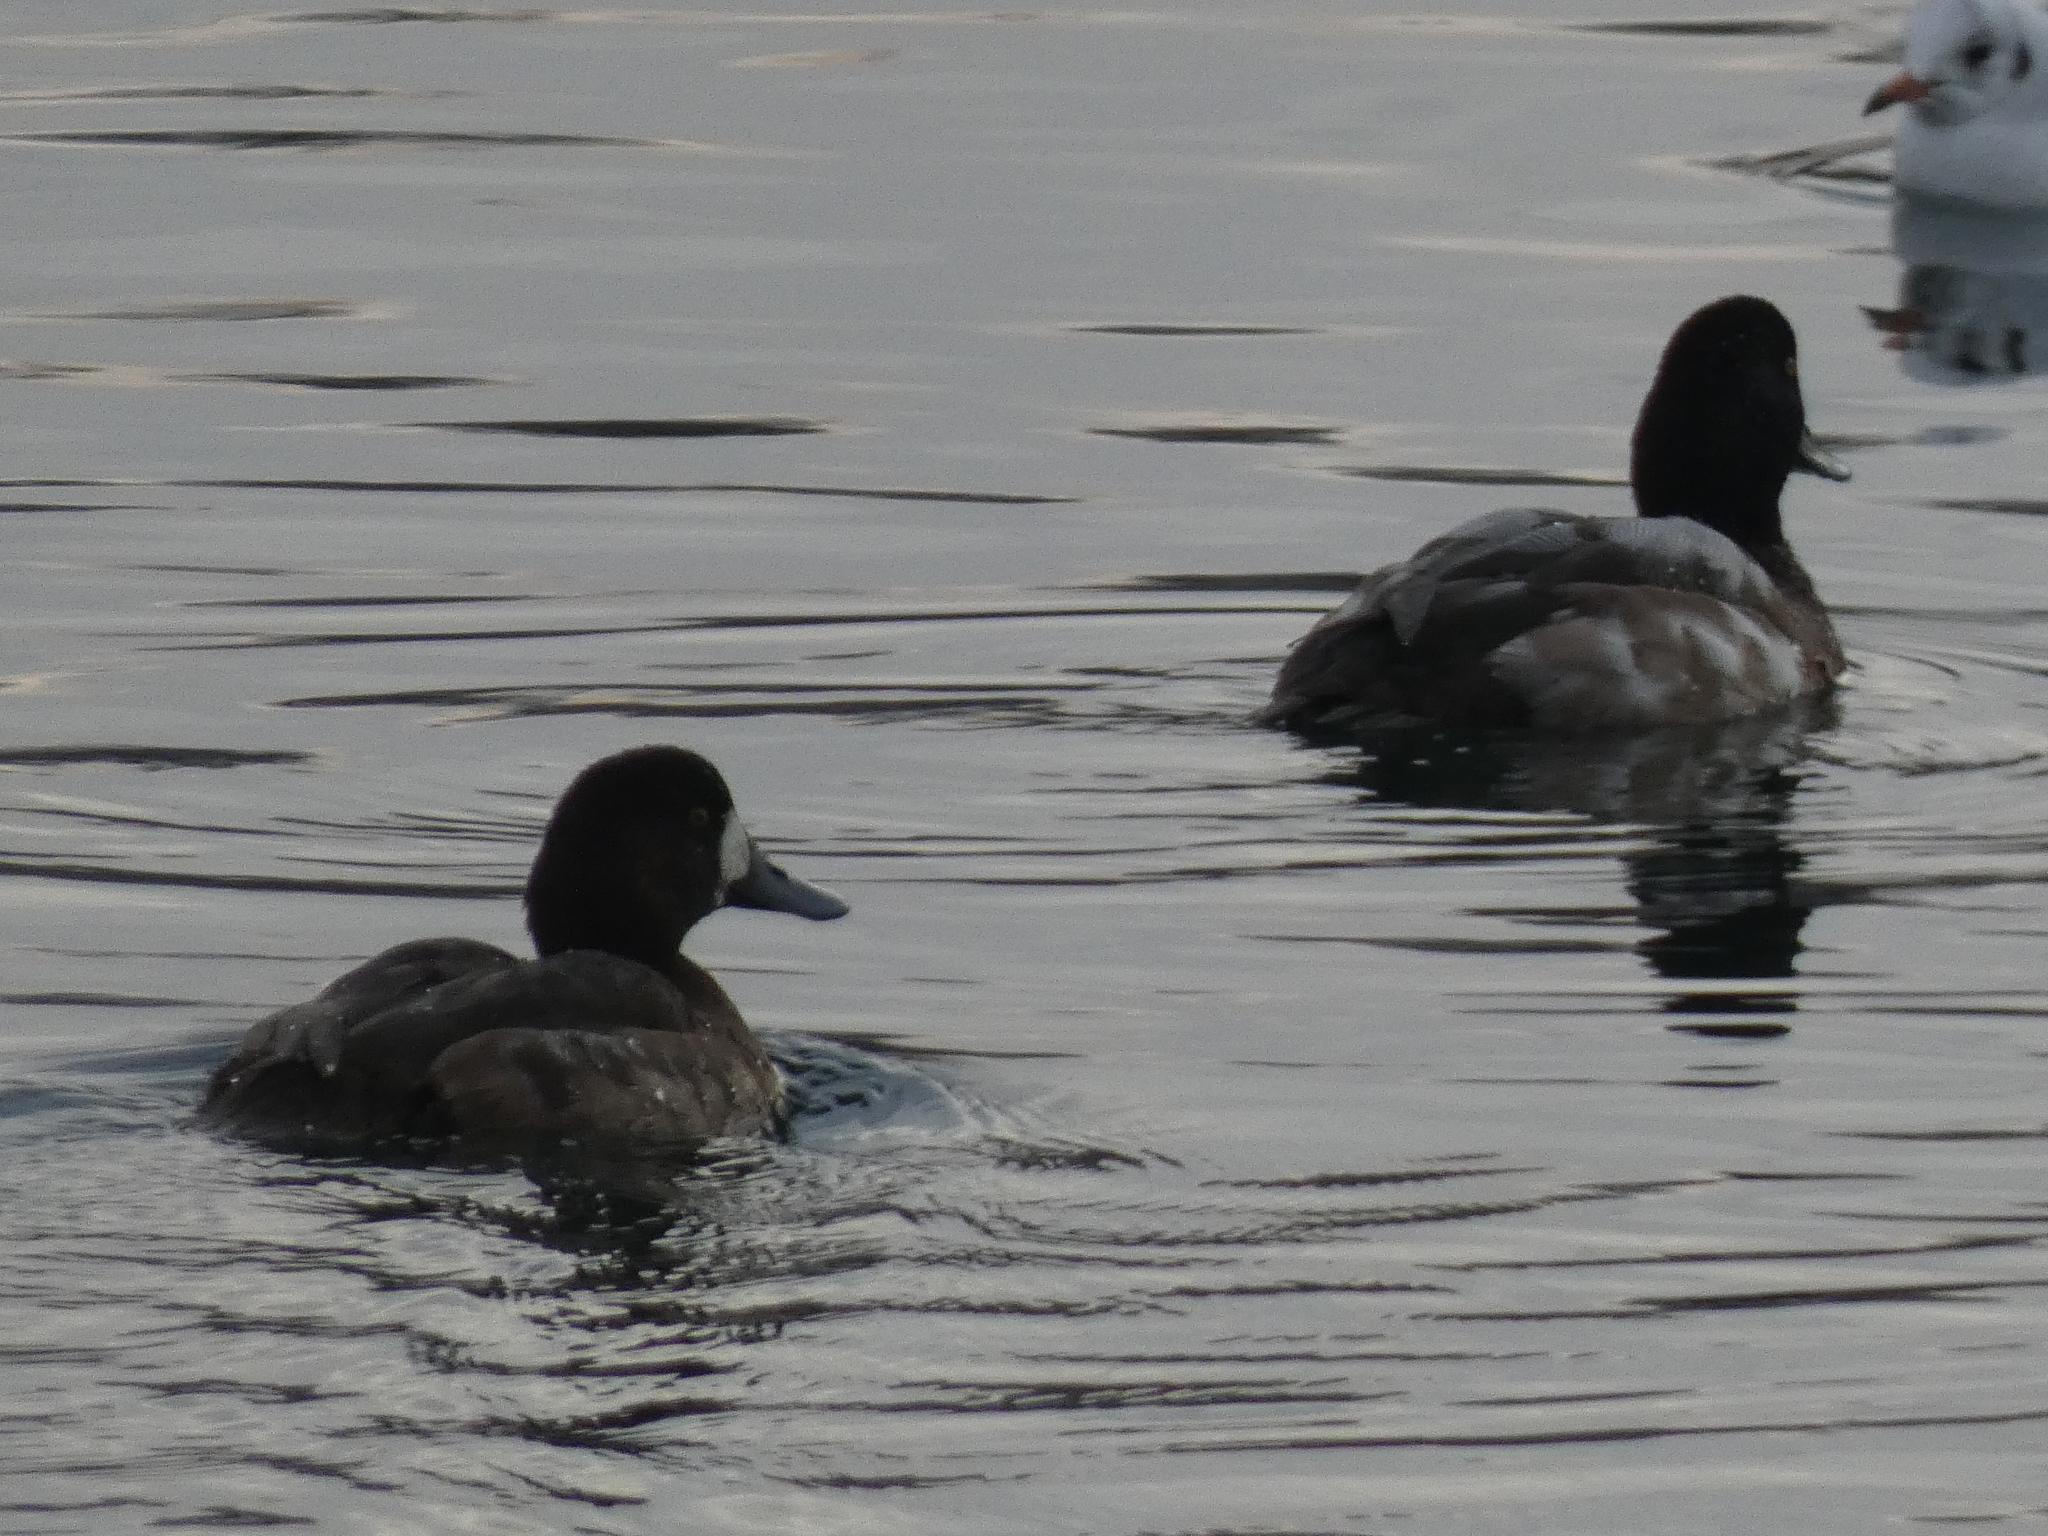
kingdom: Animalia
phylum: Chordata
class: Aves
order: Anseriformes
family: Anatidae
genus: Aythya
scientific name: Aythya marila
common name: Greater scaup
